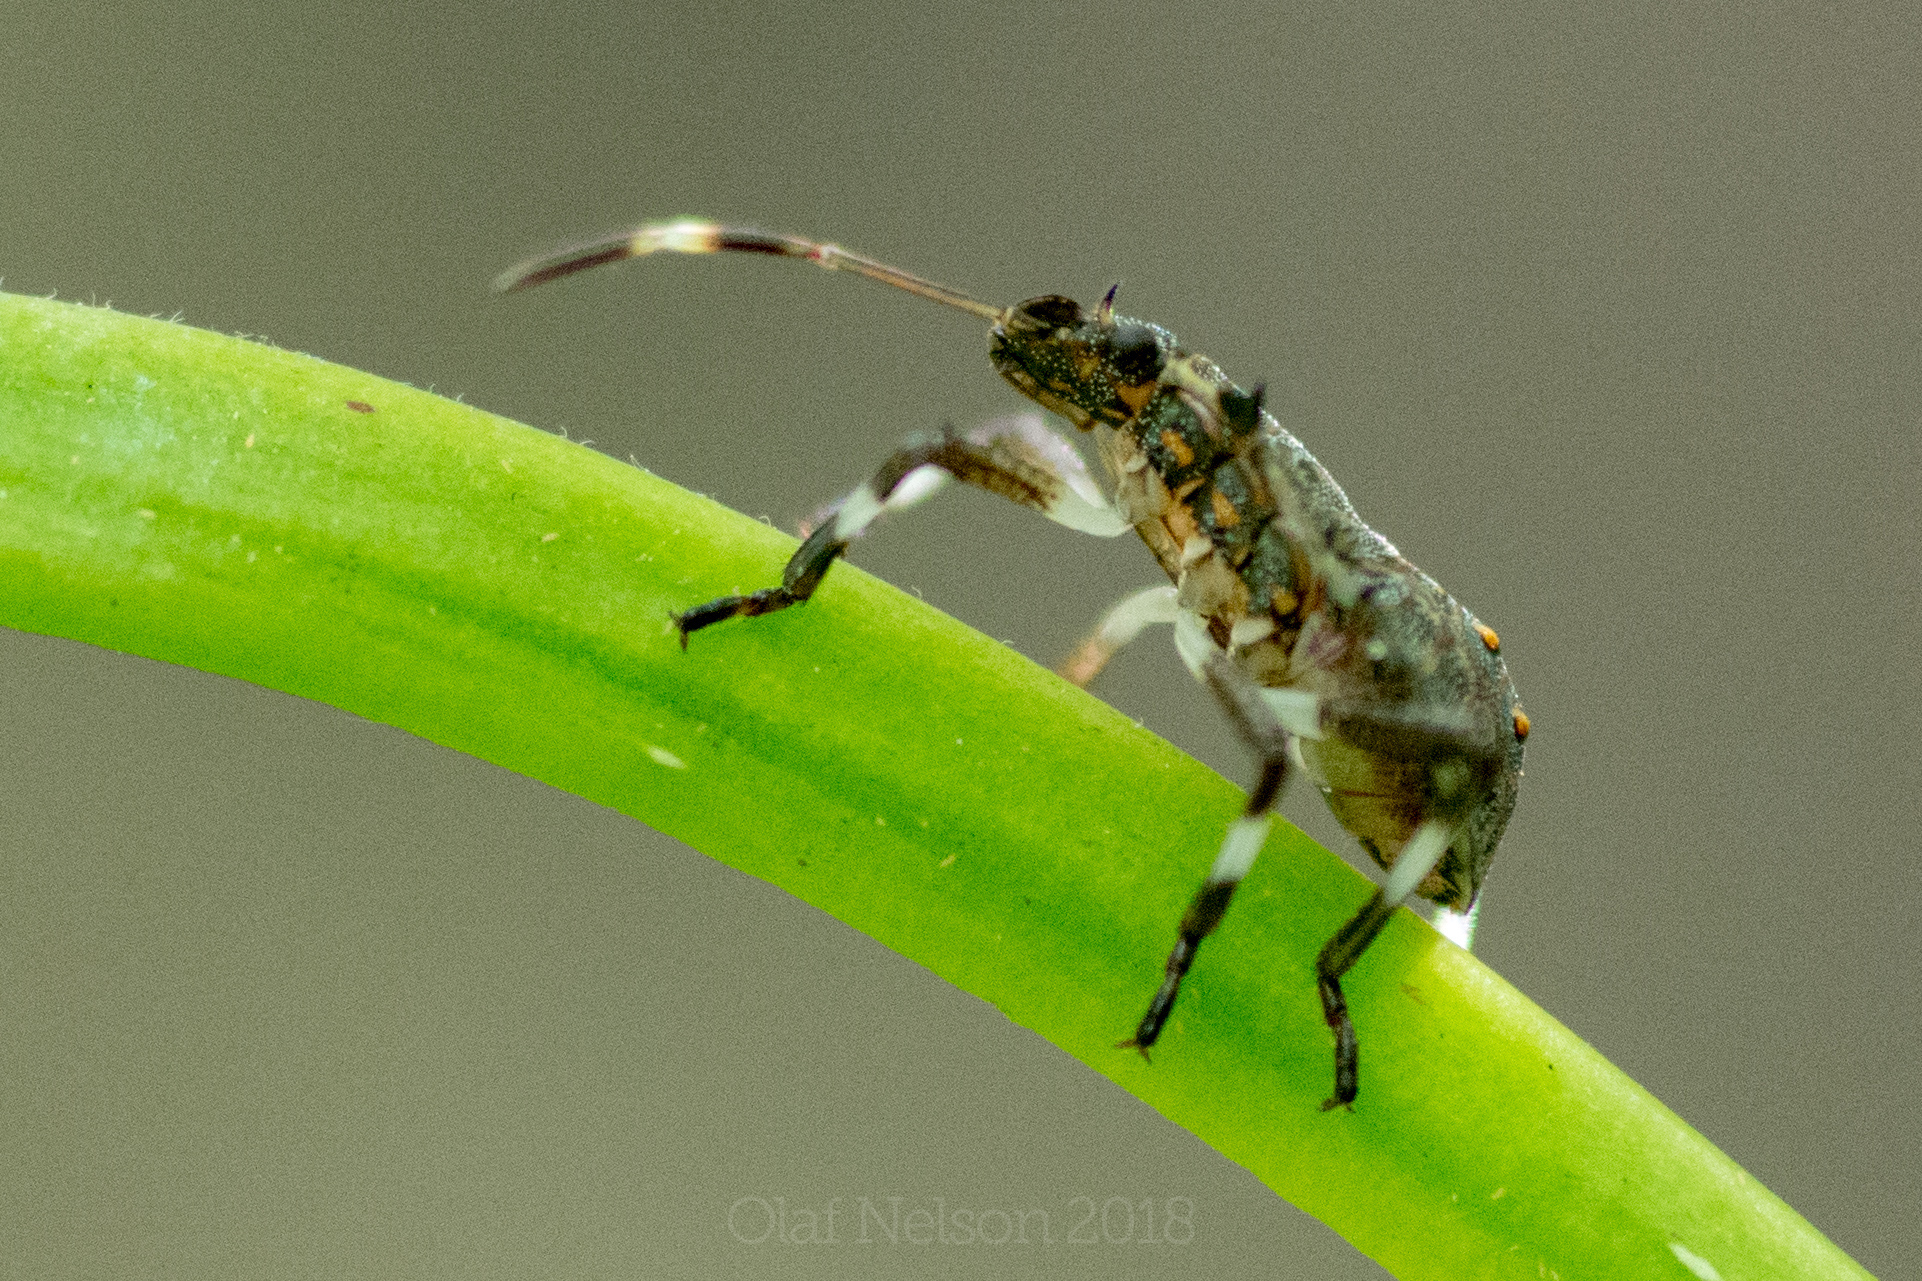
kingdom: Animalia
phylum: Arthropoda
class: Insecta
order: Hemiptera
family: Pentatomidae
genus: Halyomorpha
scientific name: Halyomorpha halys
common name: Brown marmorated stink bug
